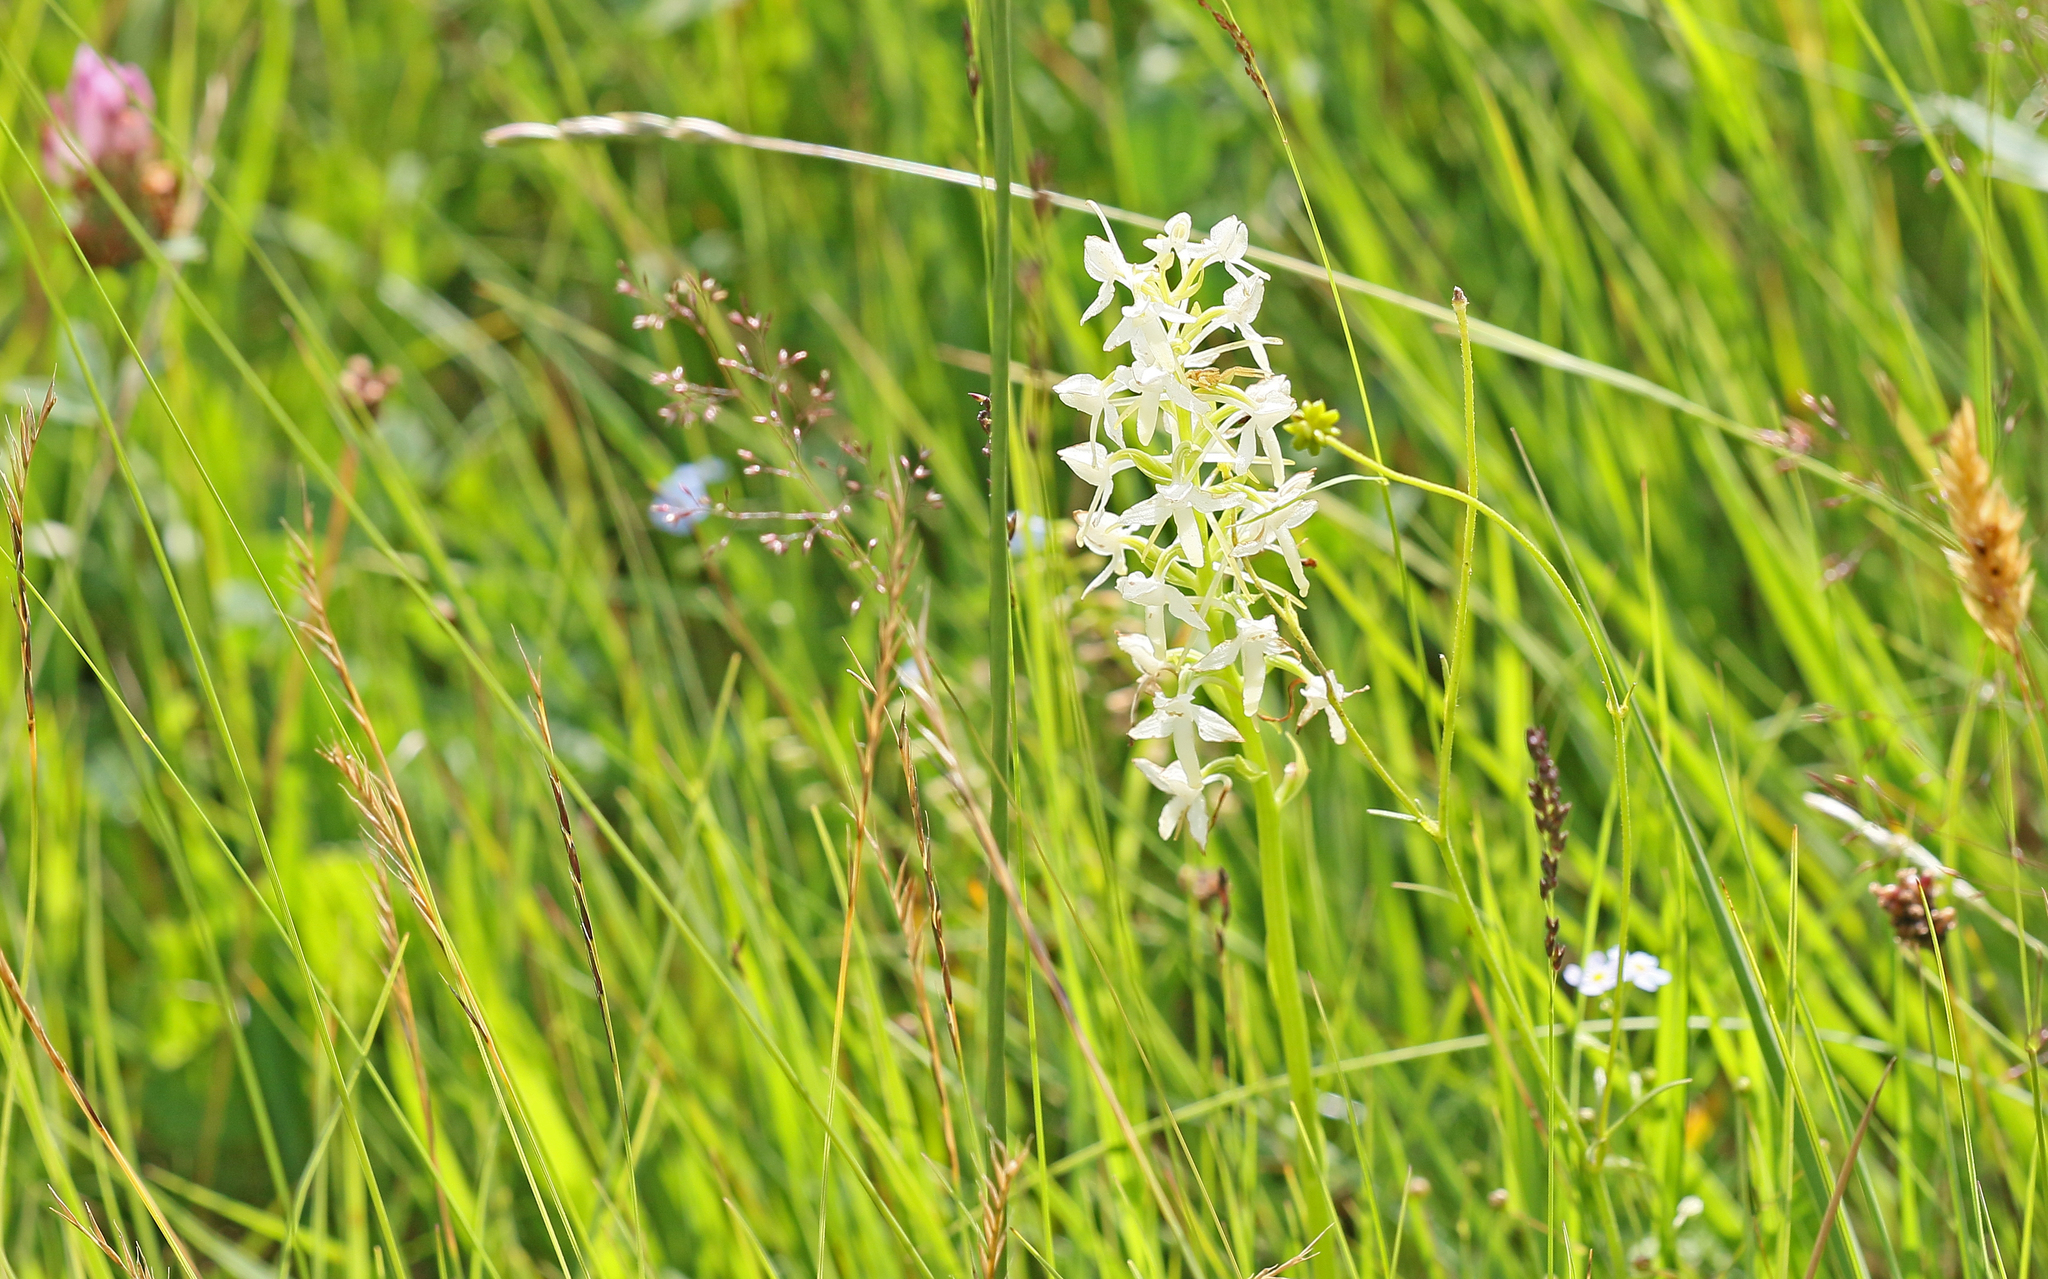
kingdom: Plantae
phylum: Tracheophyta
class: Liliopsida
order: Asparagales
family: Orchidaceae
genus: Platanthera
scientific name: Platanthera bifolia
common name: Lesser butterfly-orchid
